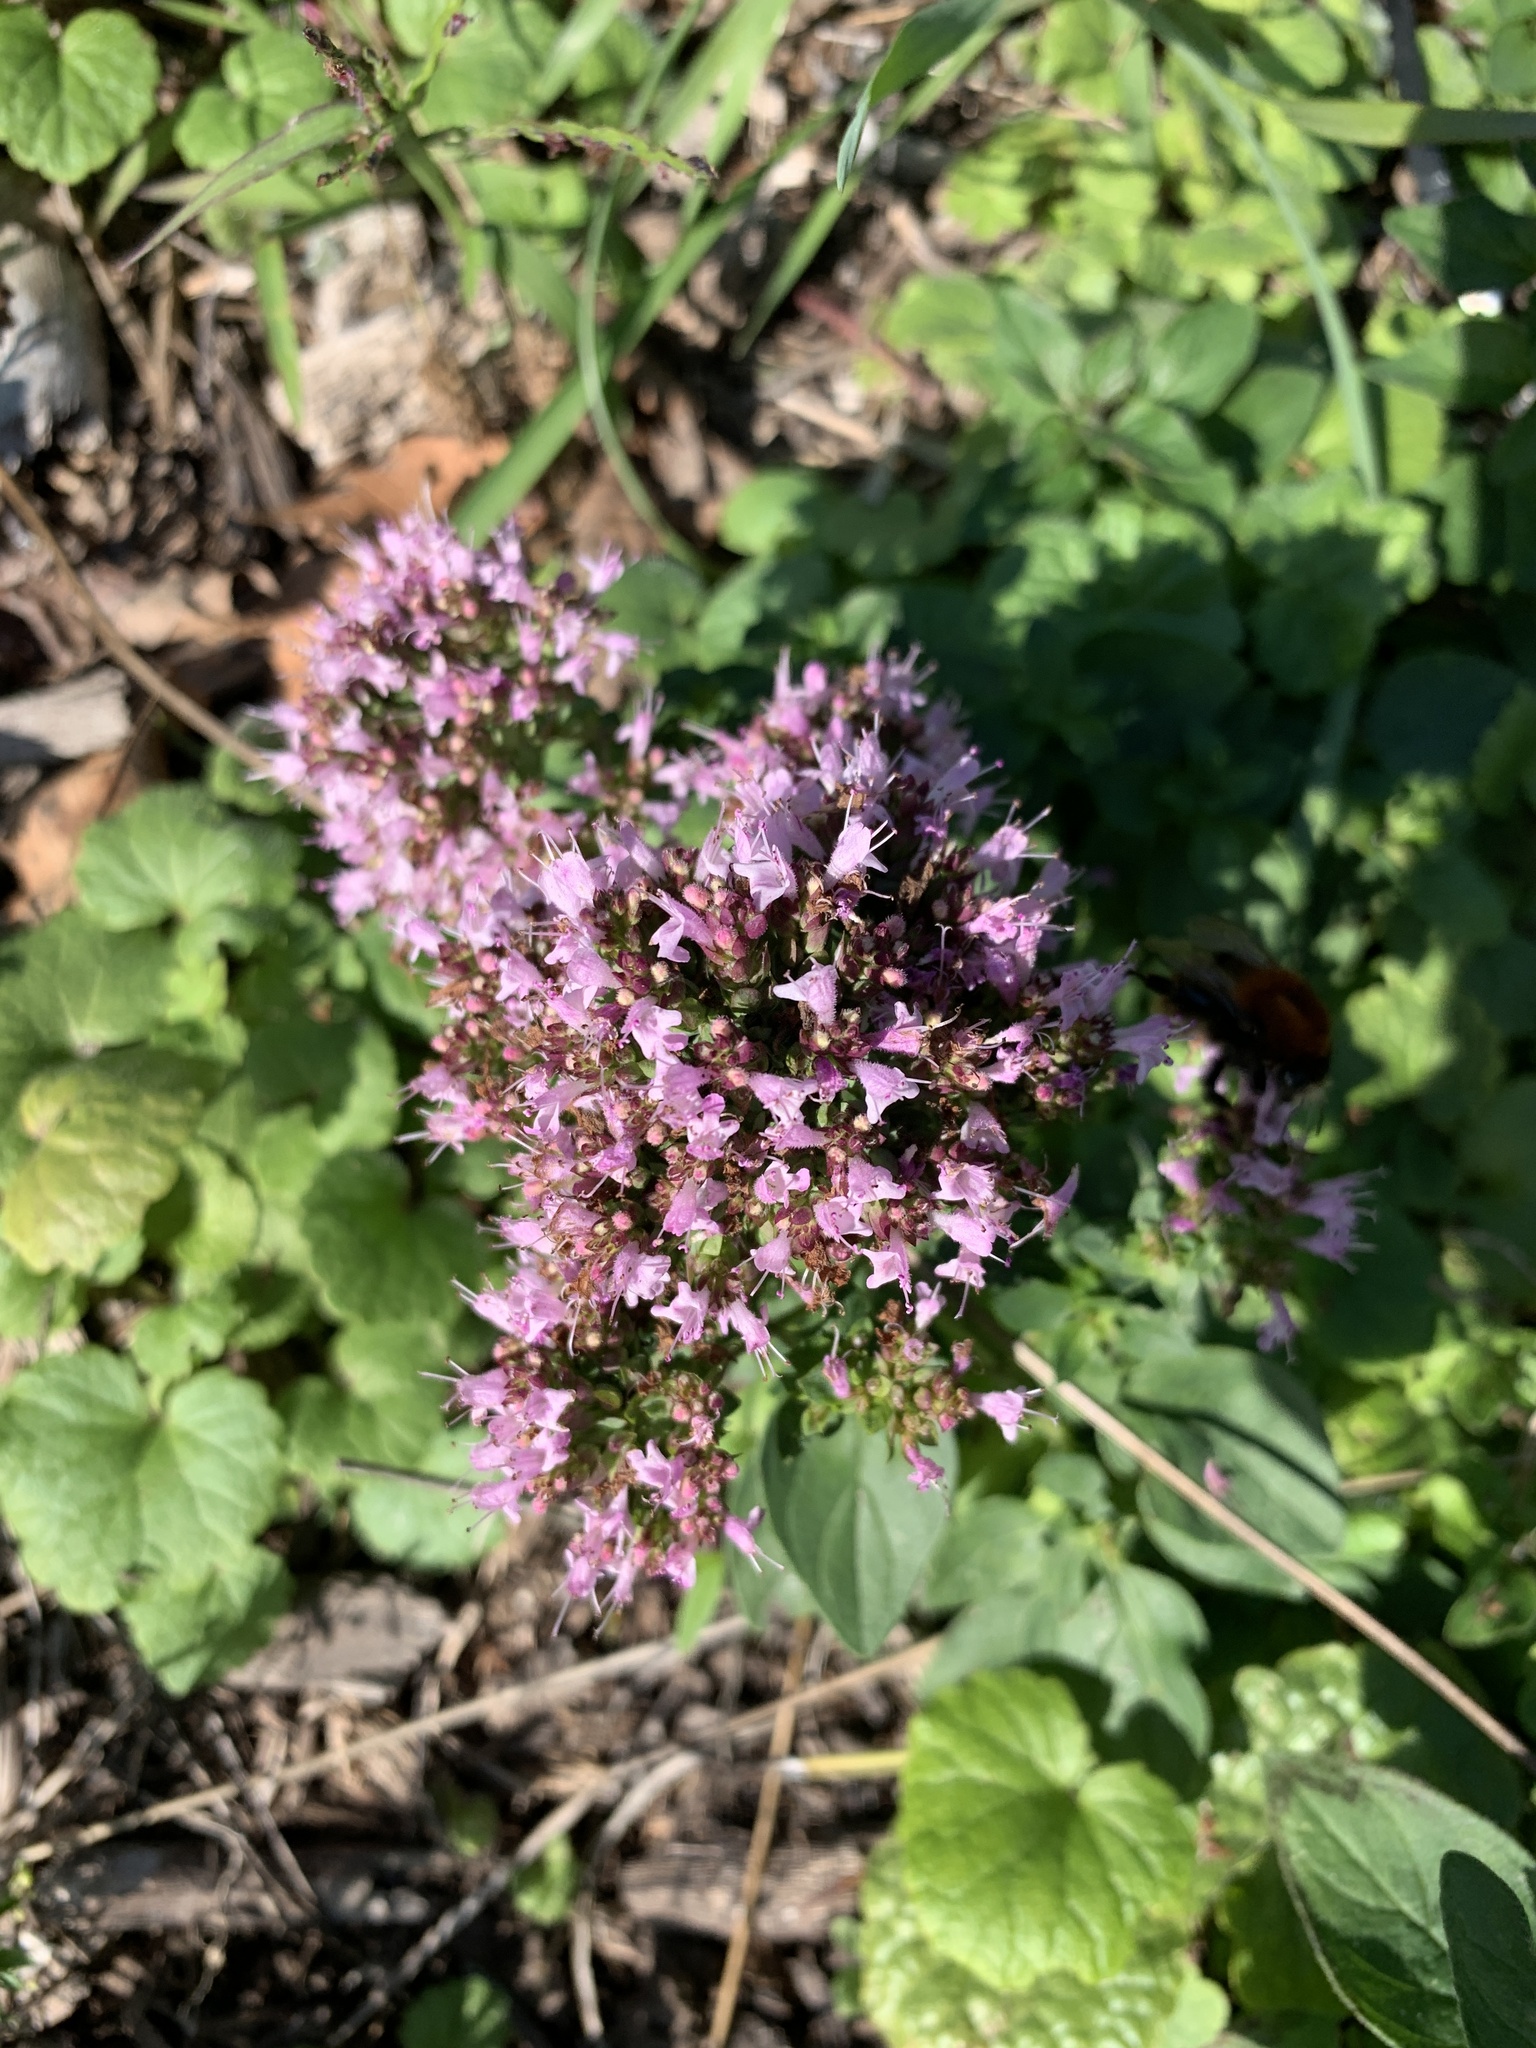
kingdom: Plantae
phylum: Tracheophyta
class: Magnoliopsida
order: Lamiales
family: Lamiaceae
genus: Origanum
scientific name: Origanum vulgare
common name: Wild marjoram
